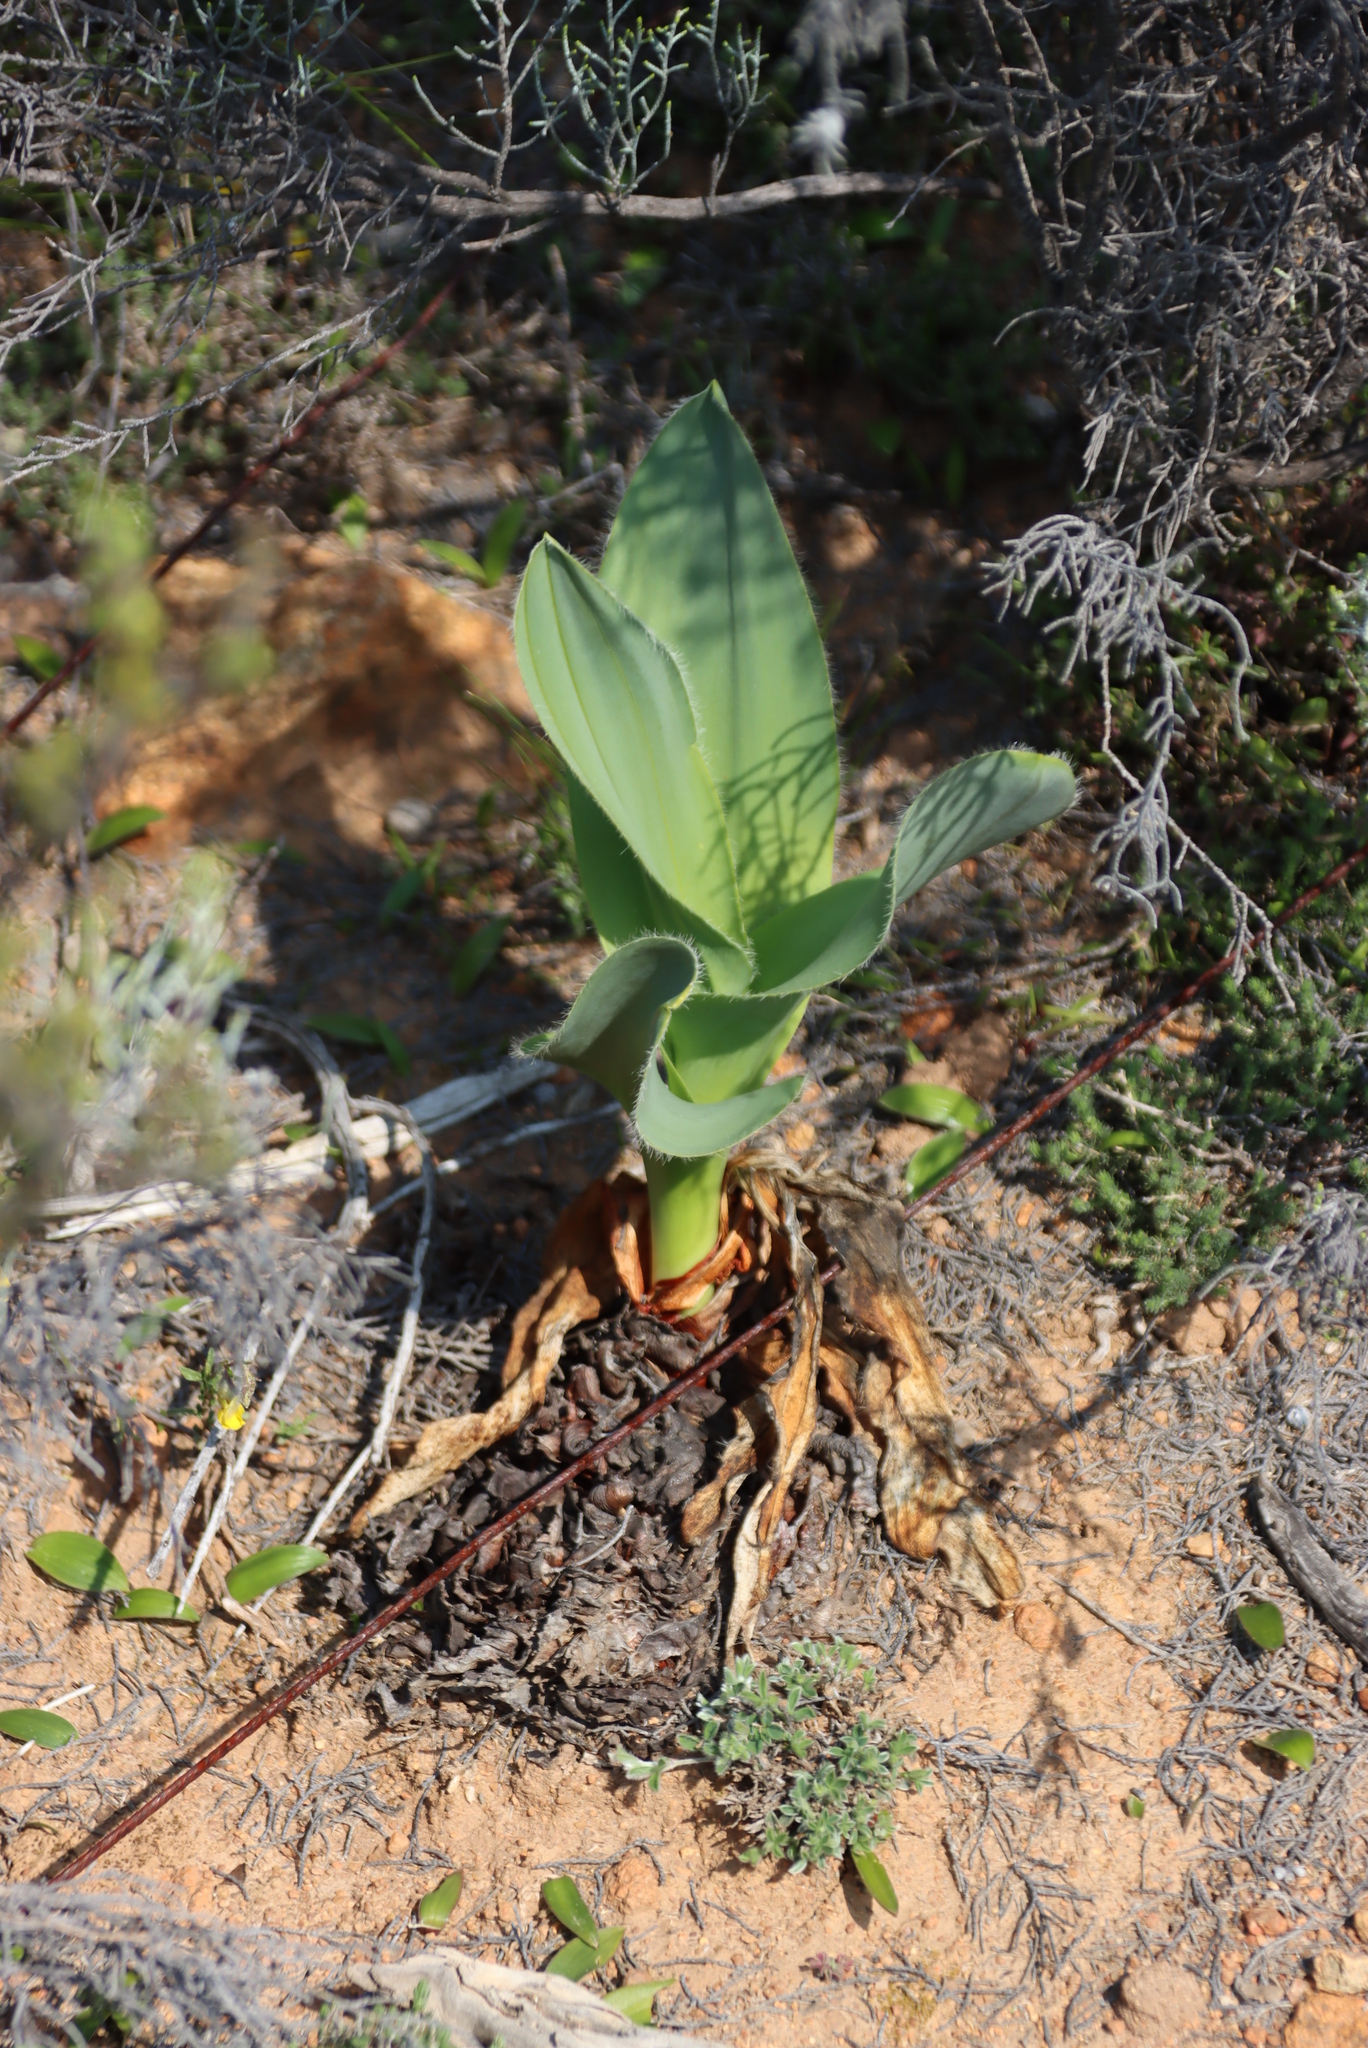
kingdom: Plantae
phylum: Tracheophyta
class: Liliopsida
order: Asparagales
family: Asparagaceae
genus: Drimia
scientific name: Drimia capensis
